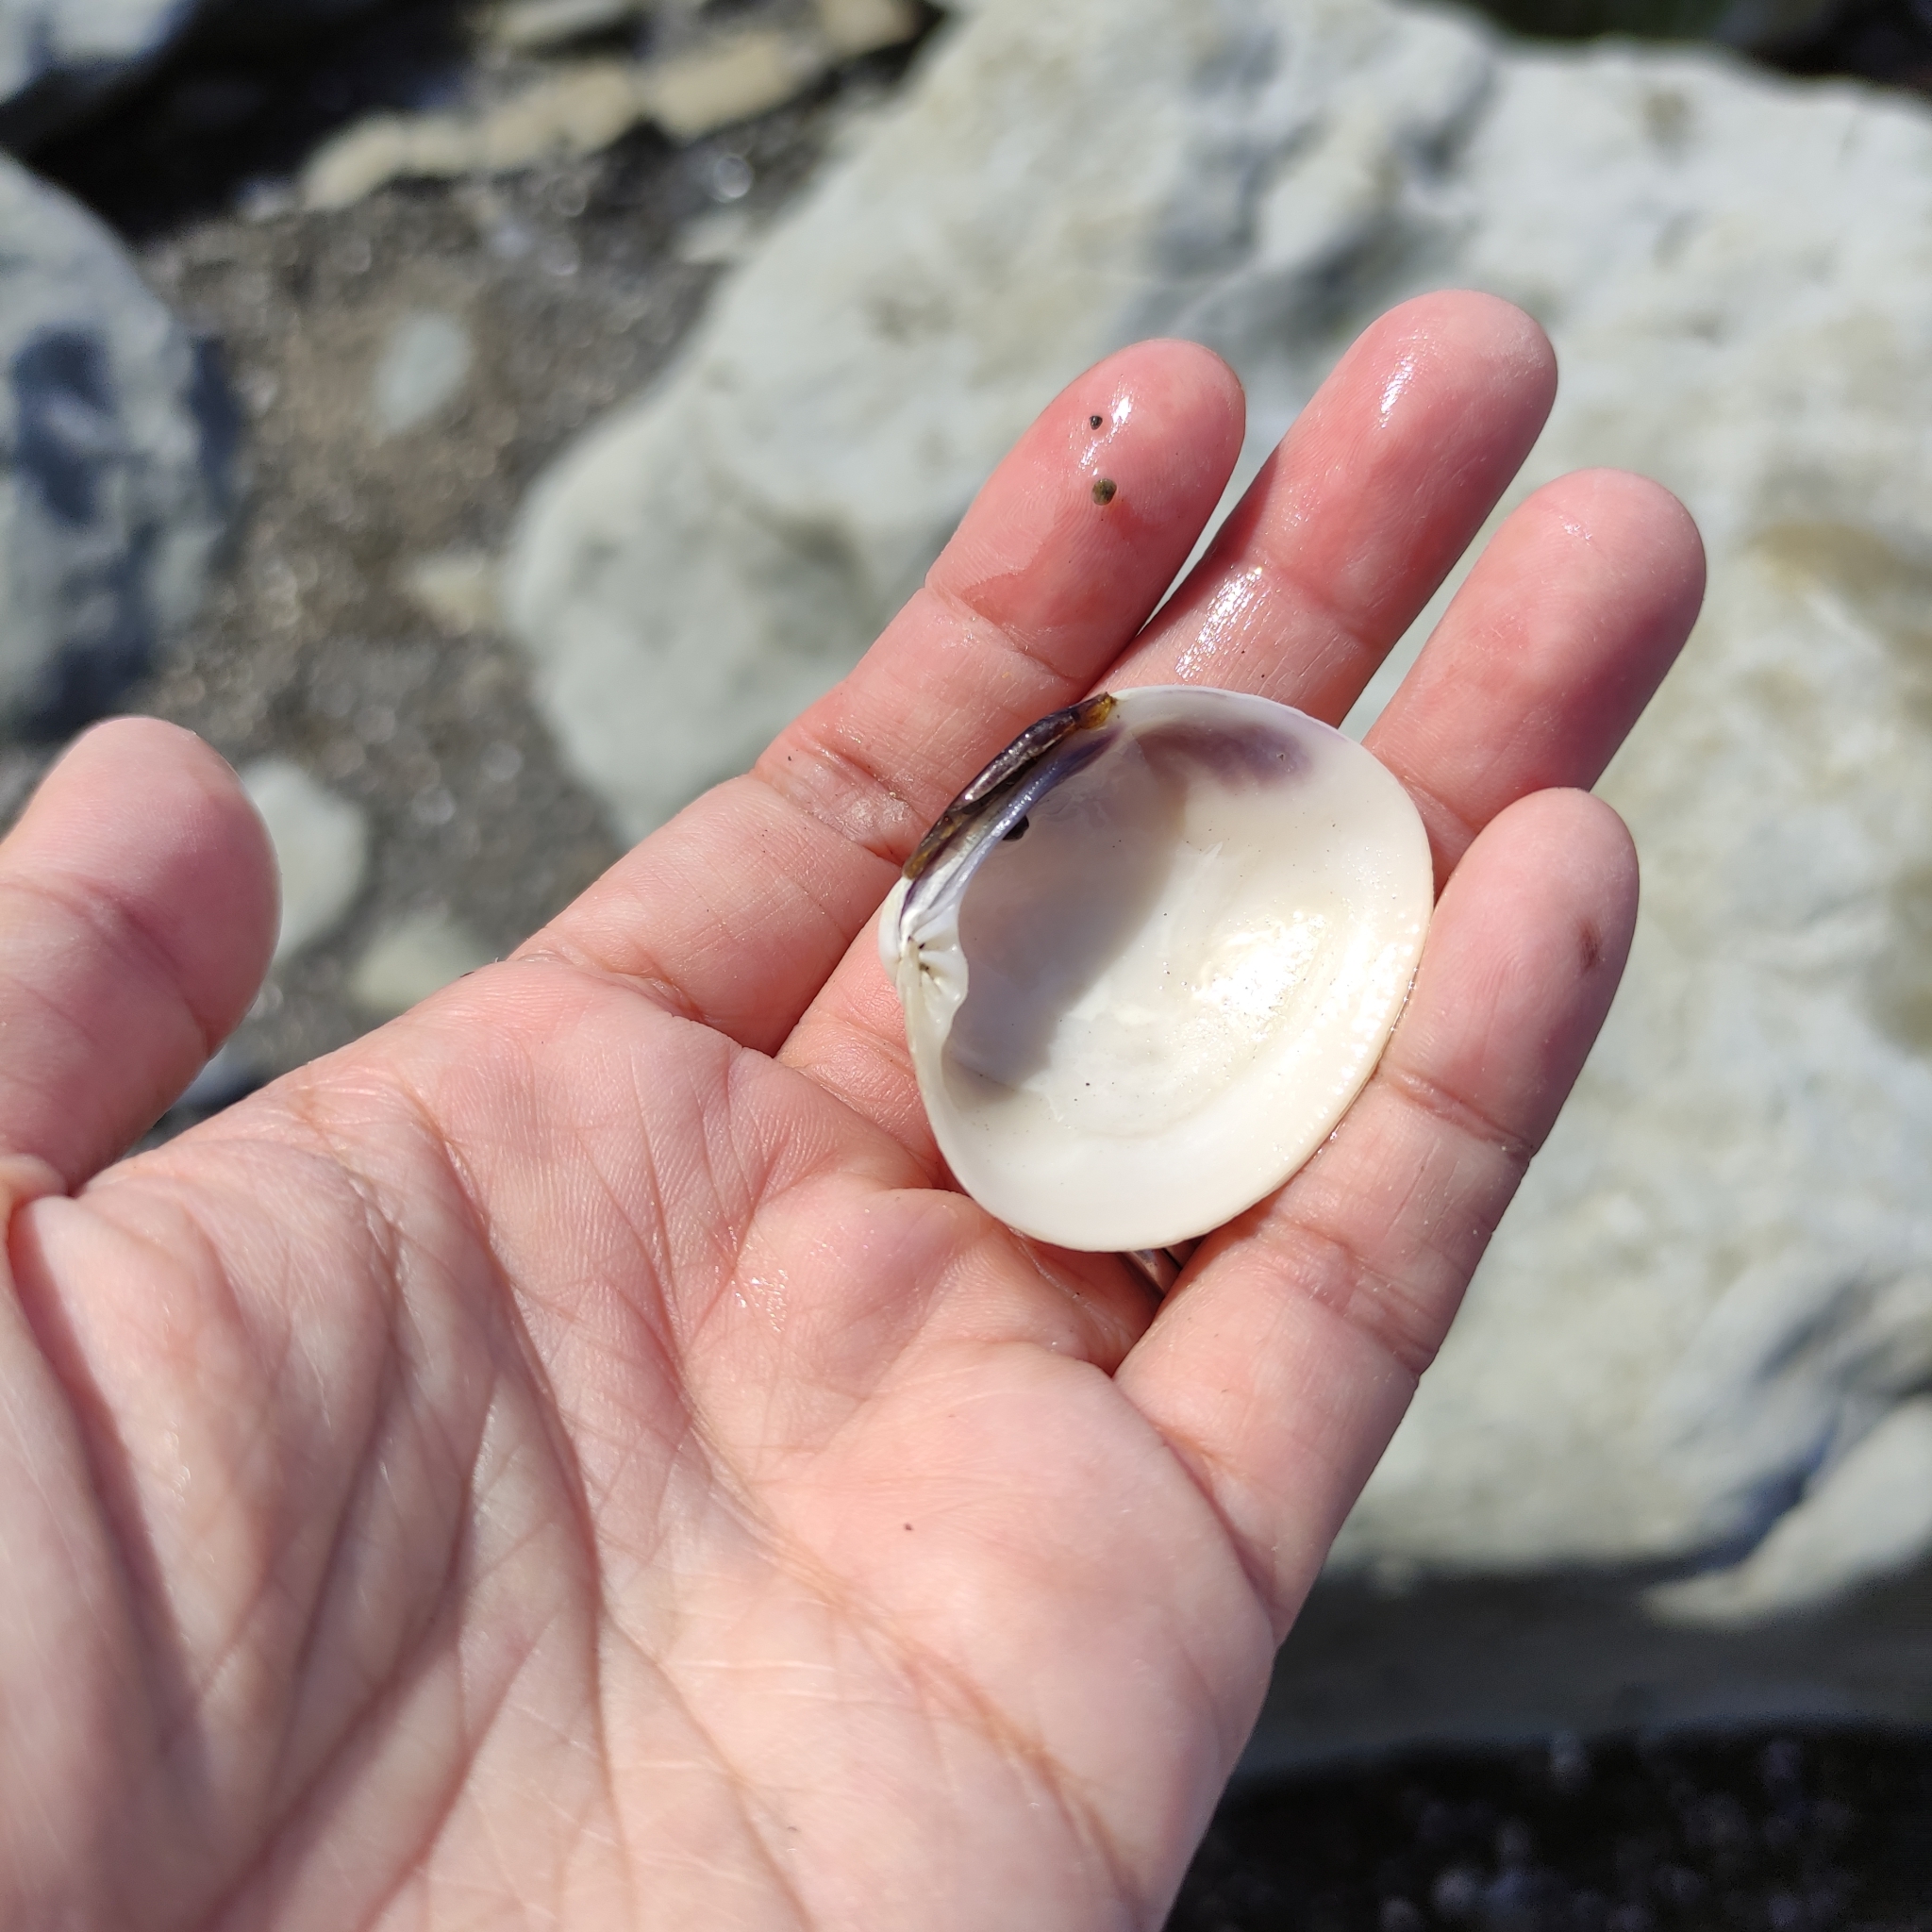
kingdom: Animalia
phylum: Mollusca
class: Bivalvia
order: Venerida
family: Veneridae
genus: Leukoma
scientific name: Leukoma crassicosta
